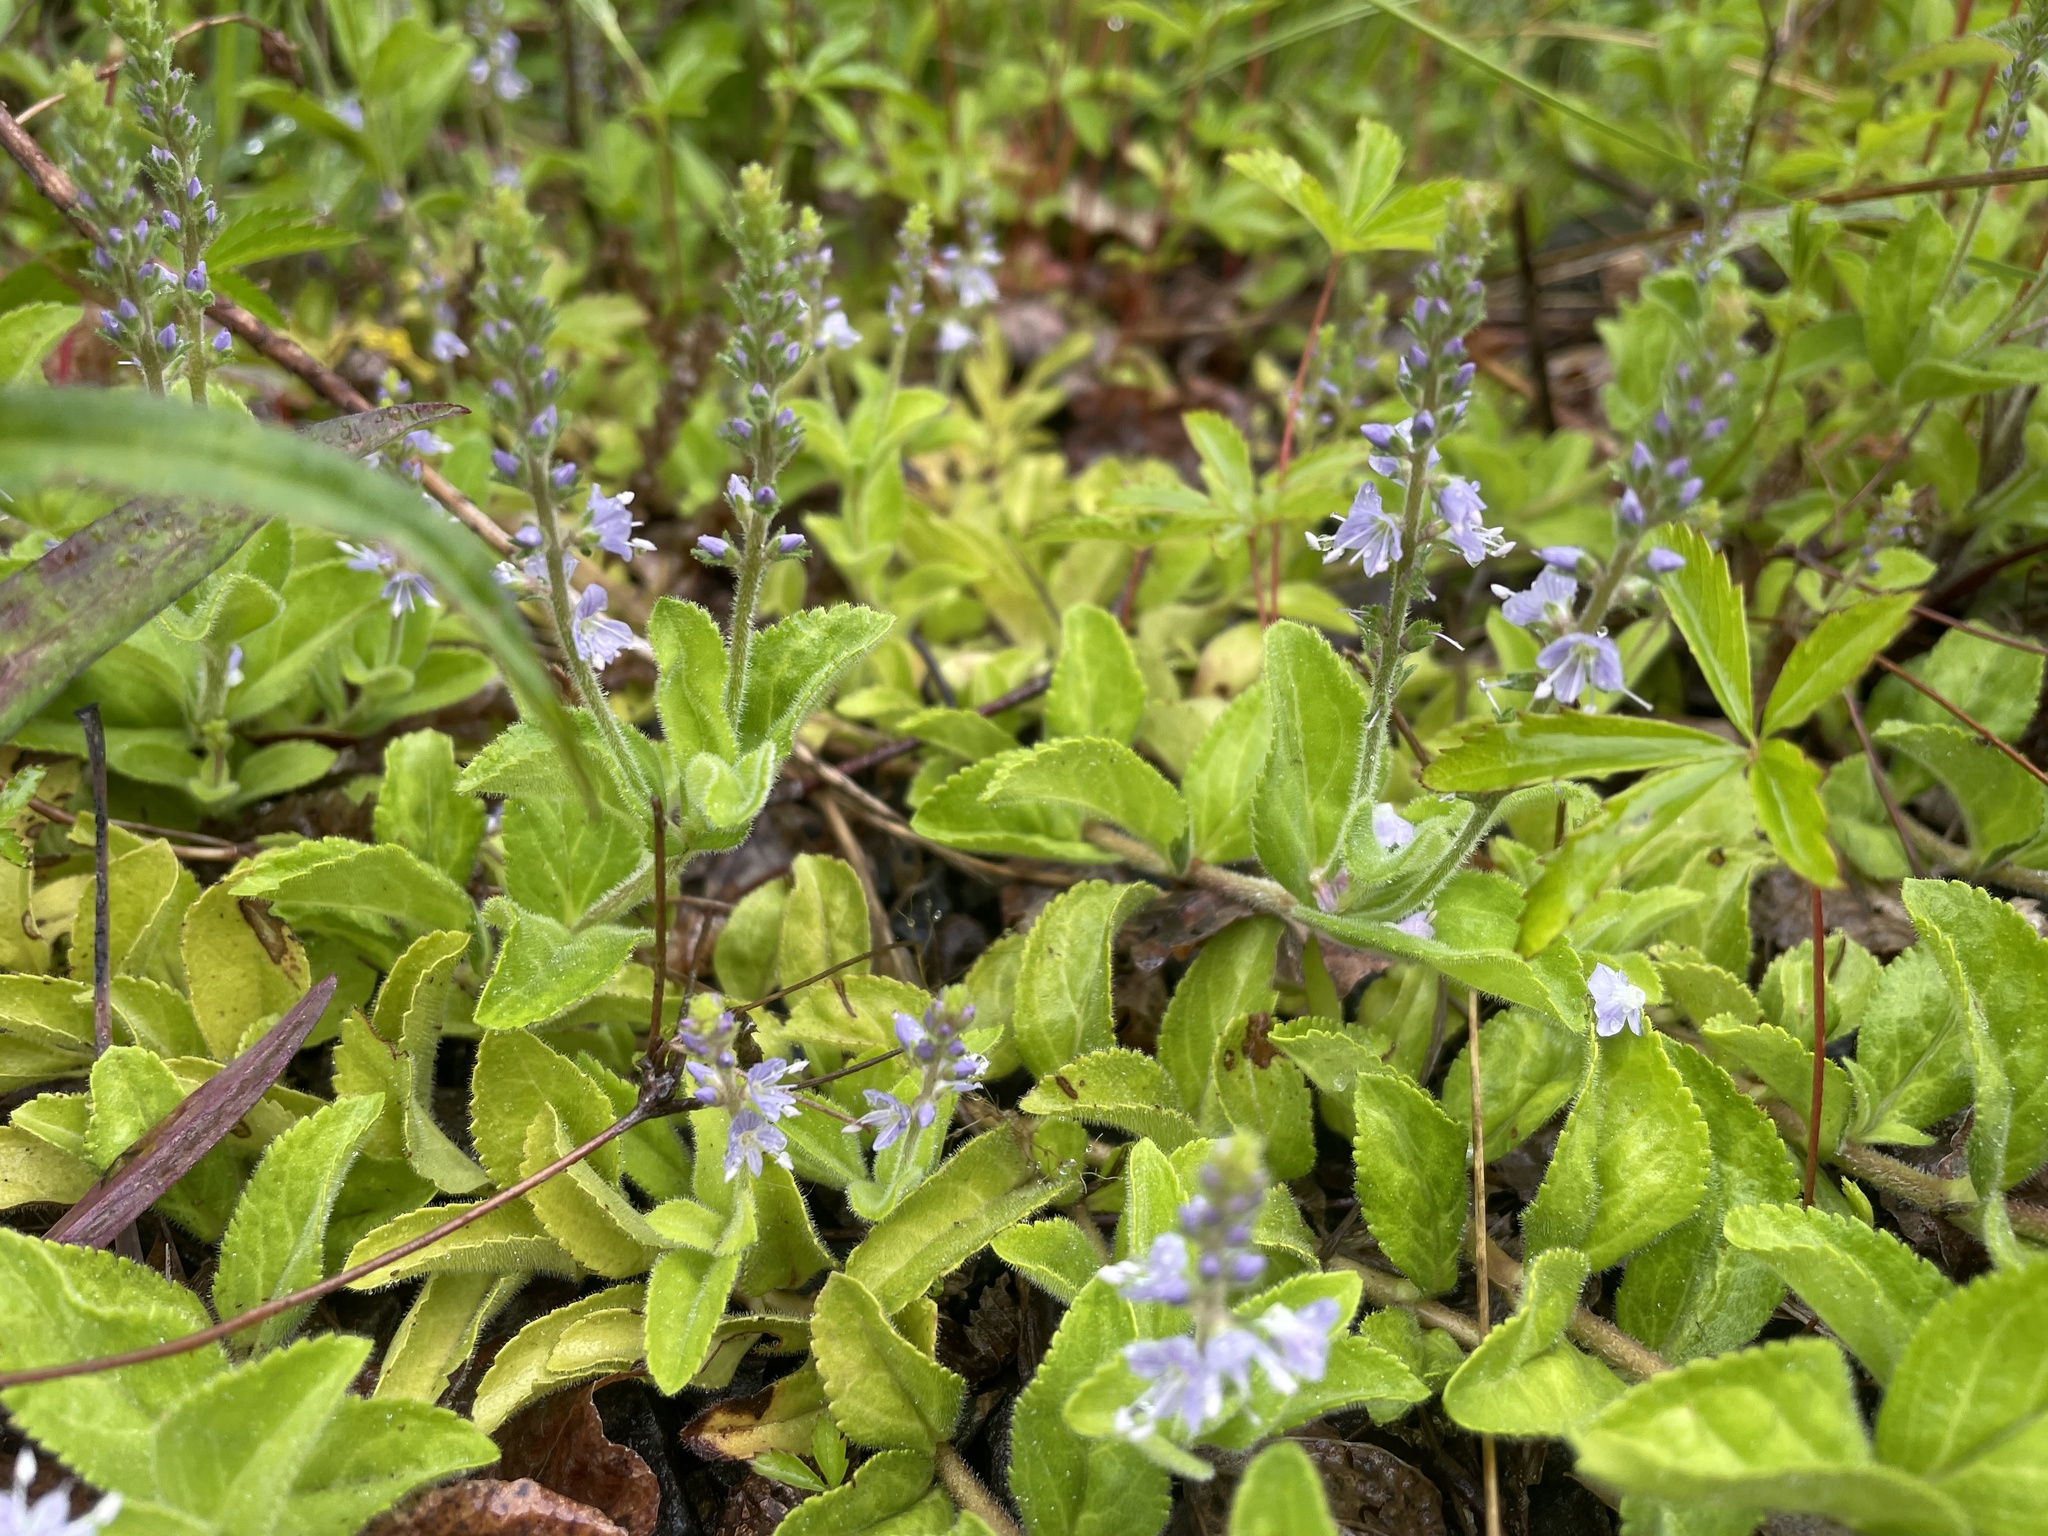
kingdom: Plantae
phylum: Tracheophyta
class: Magnoliopsida
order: Lamiales
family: Plantaginaceae
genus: Veronica
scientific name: Veronica officinalis
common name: Common speedwell
